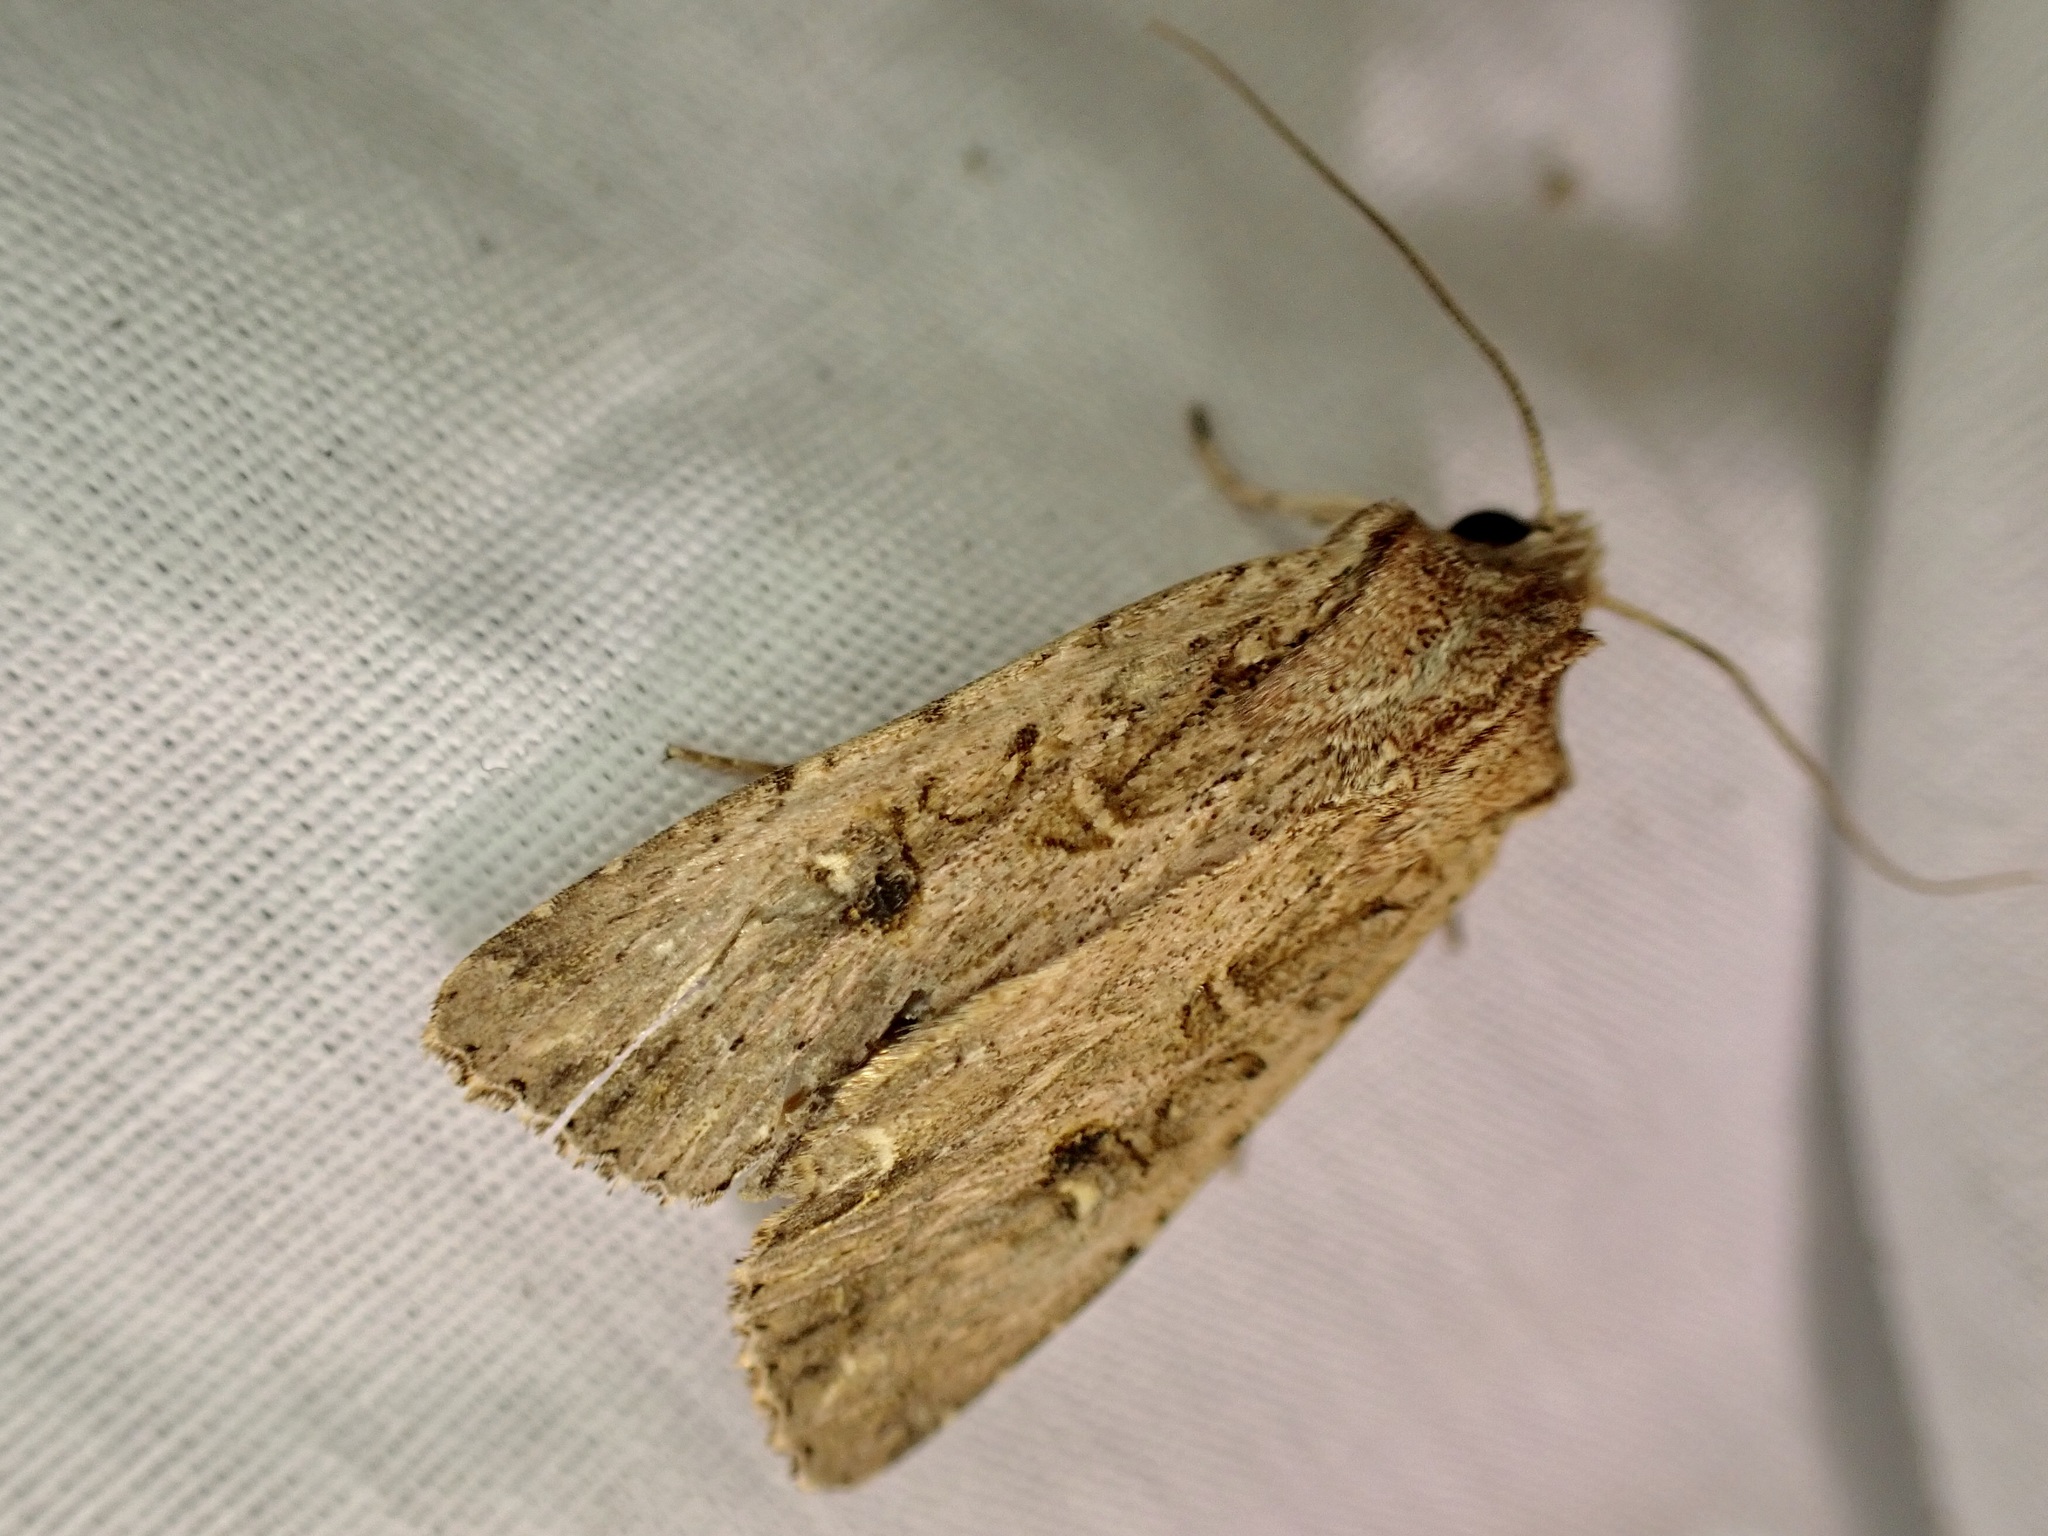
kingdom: Animalia
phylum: Arthropoda
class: Insecta
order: Lepidoptera
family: Noctuidae
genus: Ichneutica
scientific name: Ichneutica lignana
